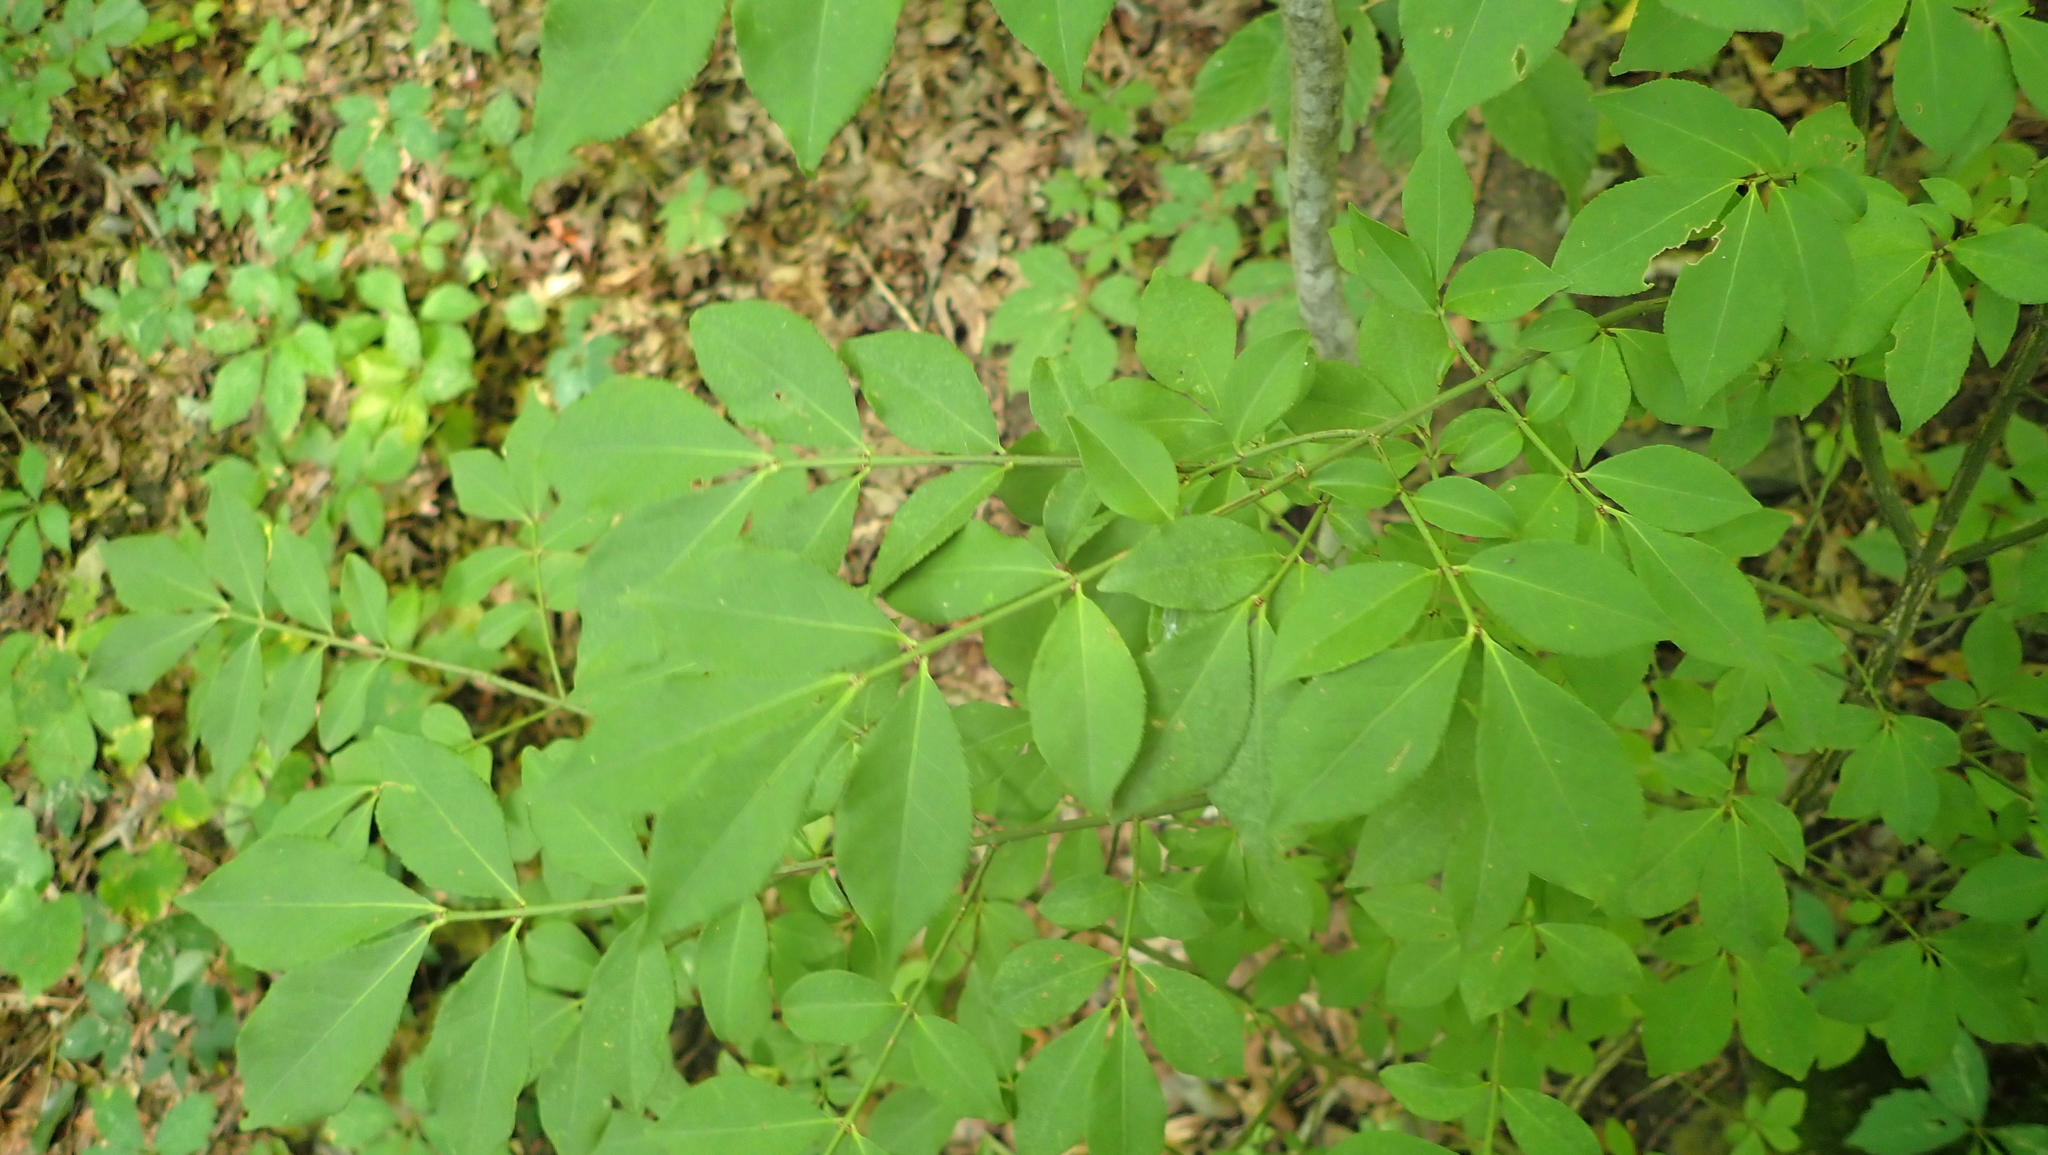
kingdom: Plantae
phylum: Tracheophyta
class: Magnoliopsida
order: Celastrales
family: Celastraceae
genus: Euonymus
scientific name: Euonymus alatus
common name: Winged euonymus
